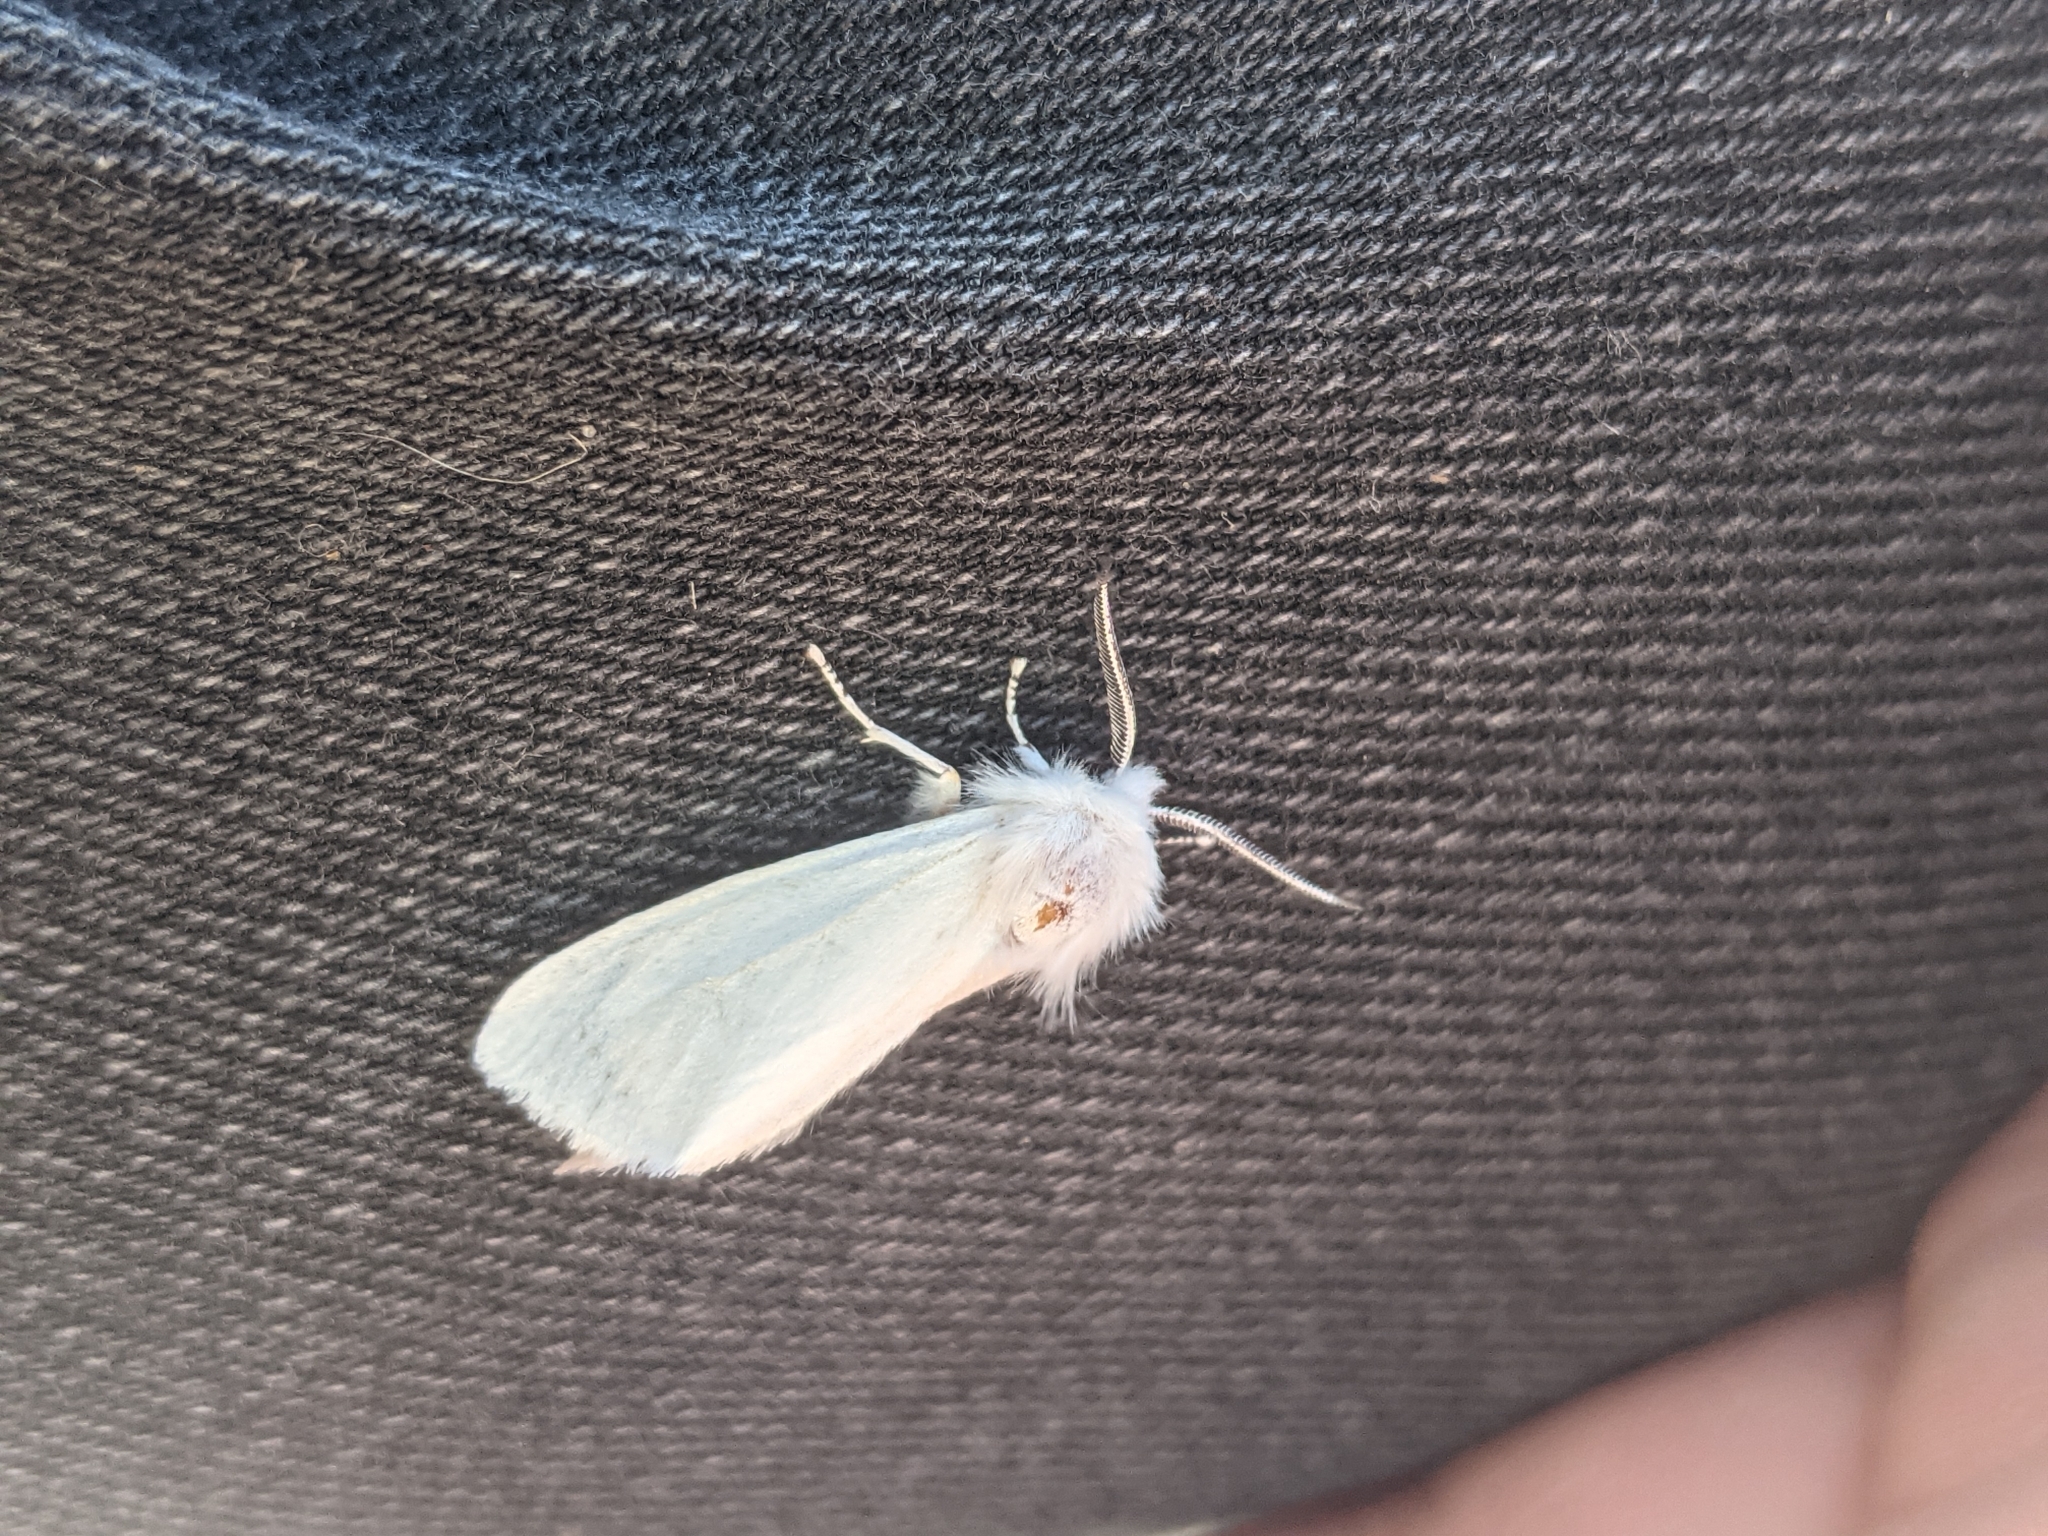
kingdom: Animalia
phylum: Arthropoda
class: Insecta
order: Lepidoptera
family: Erebidae
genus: Hyphantria
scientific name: Hyphantria cunea
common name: American white moth
